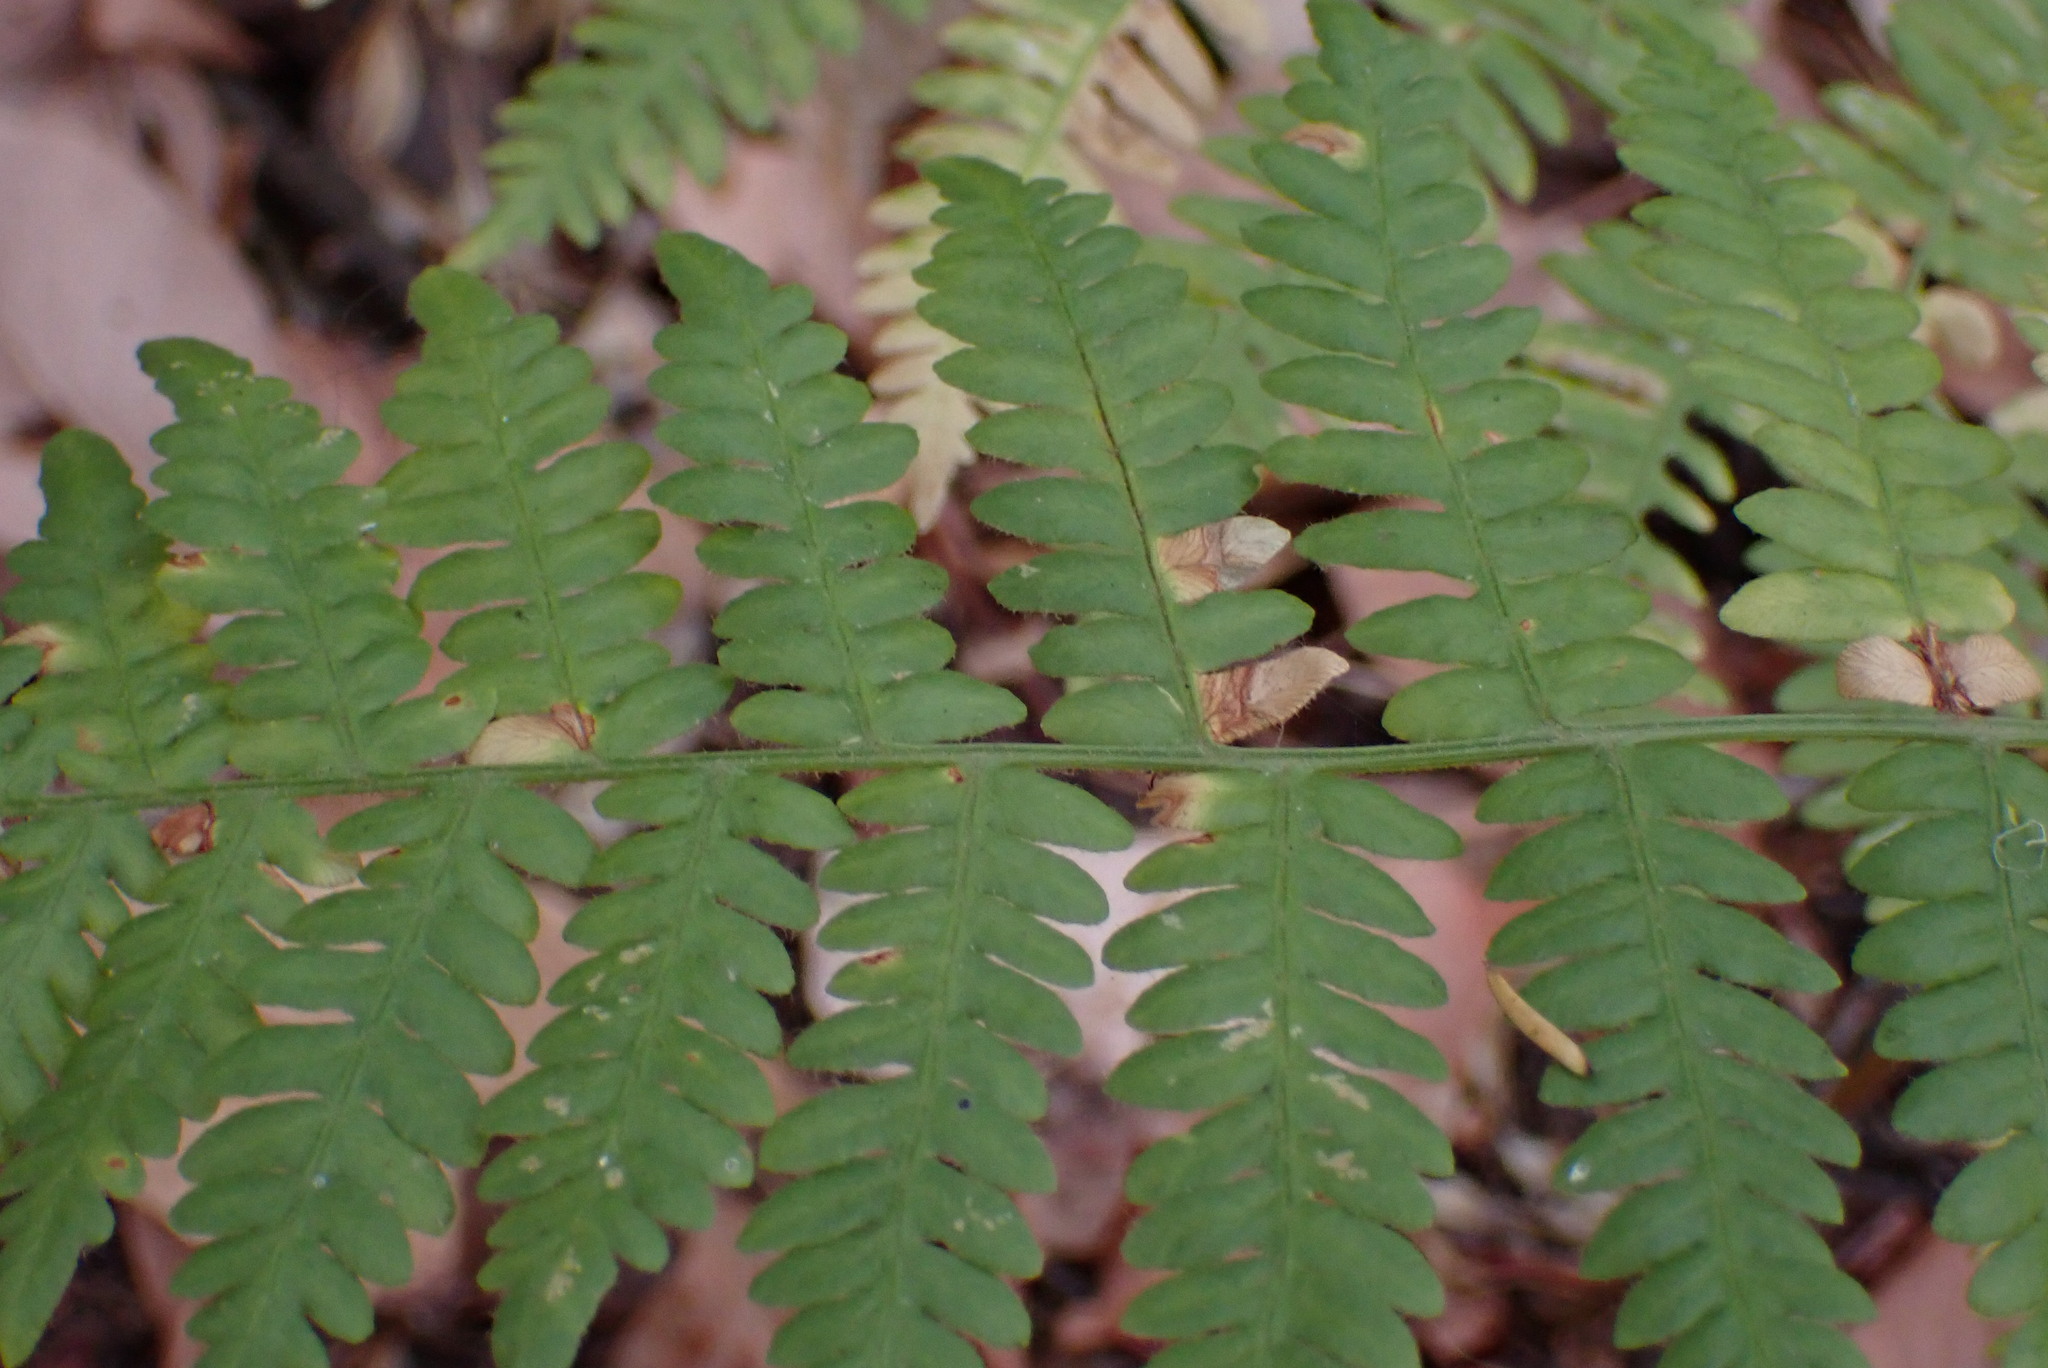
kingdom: Plantae
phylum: Tracheophyta
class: Polypodiopsida
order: Polypodiales
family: Dennstaedtiaceae
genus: Pteridium
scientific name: Pteridium aquilinum
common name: Bracken
